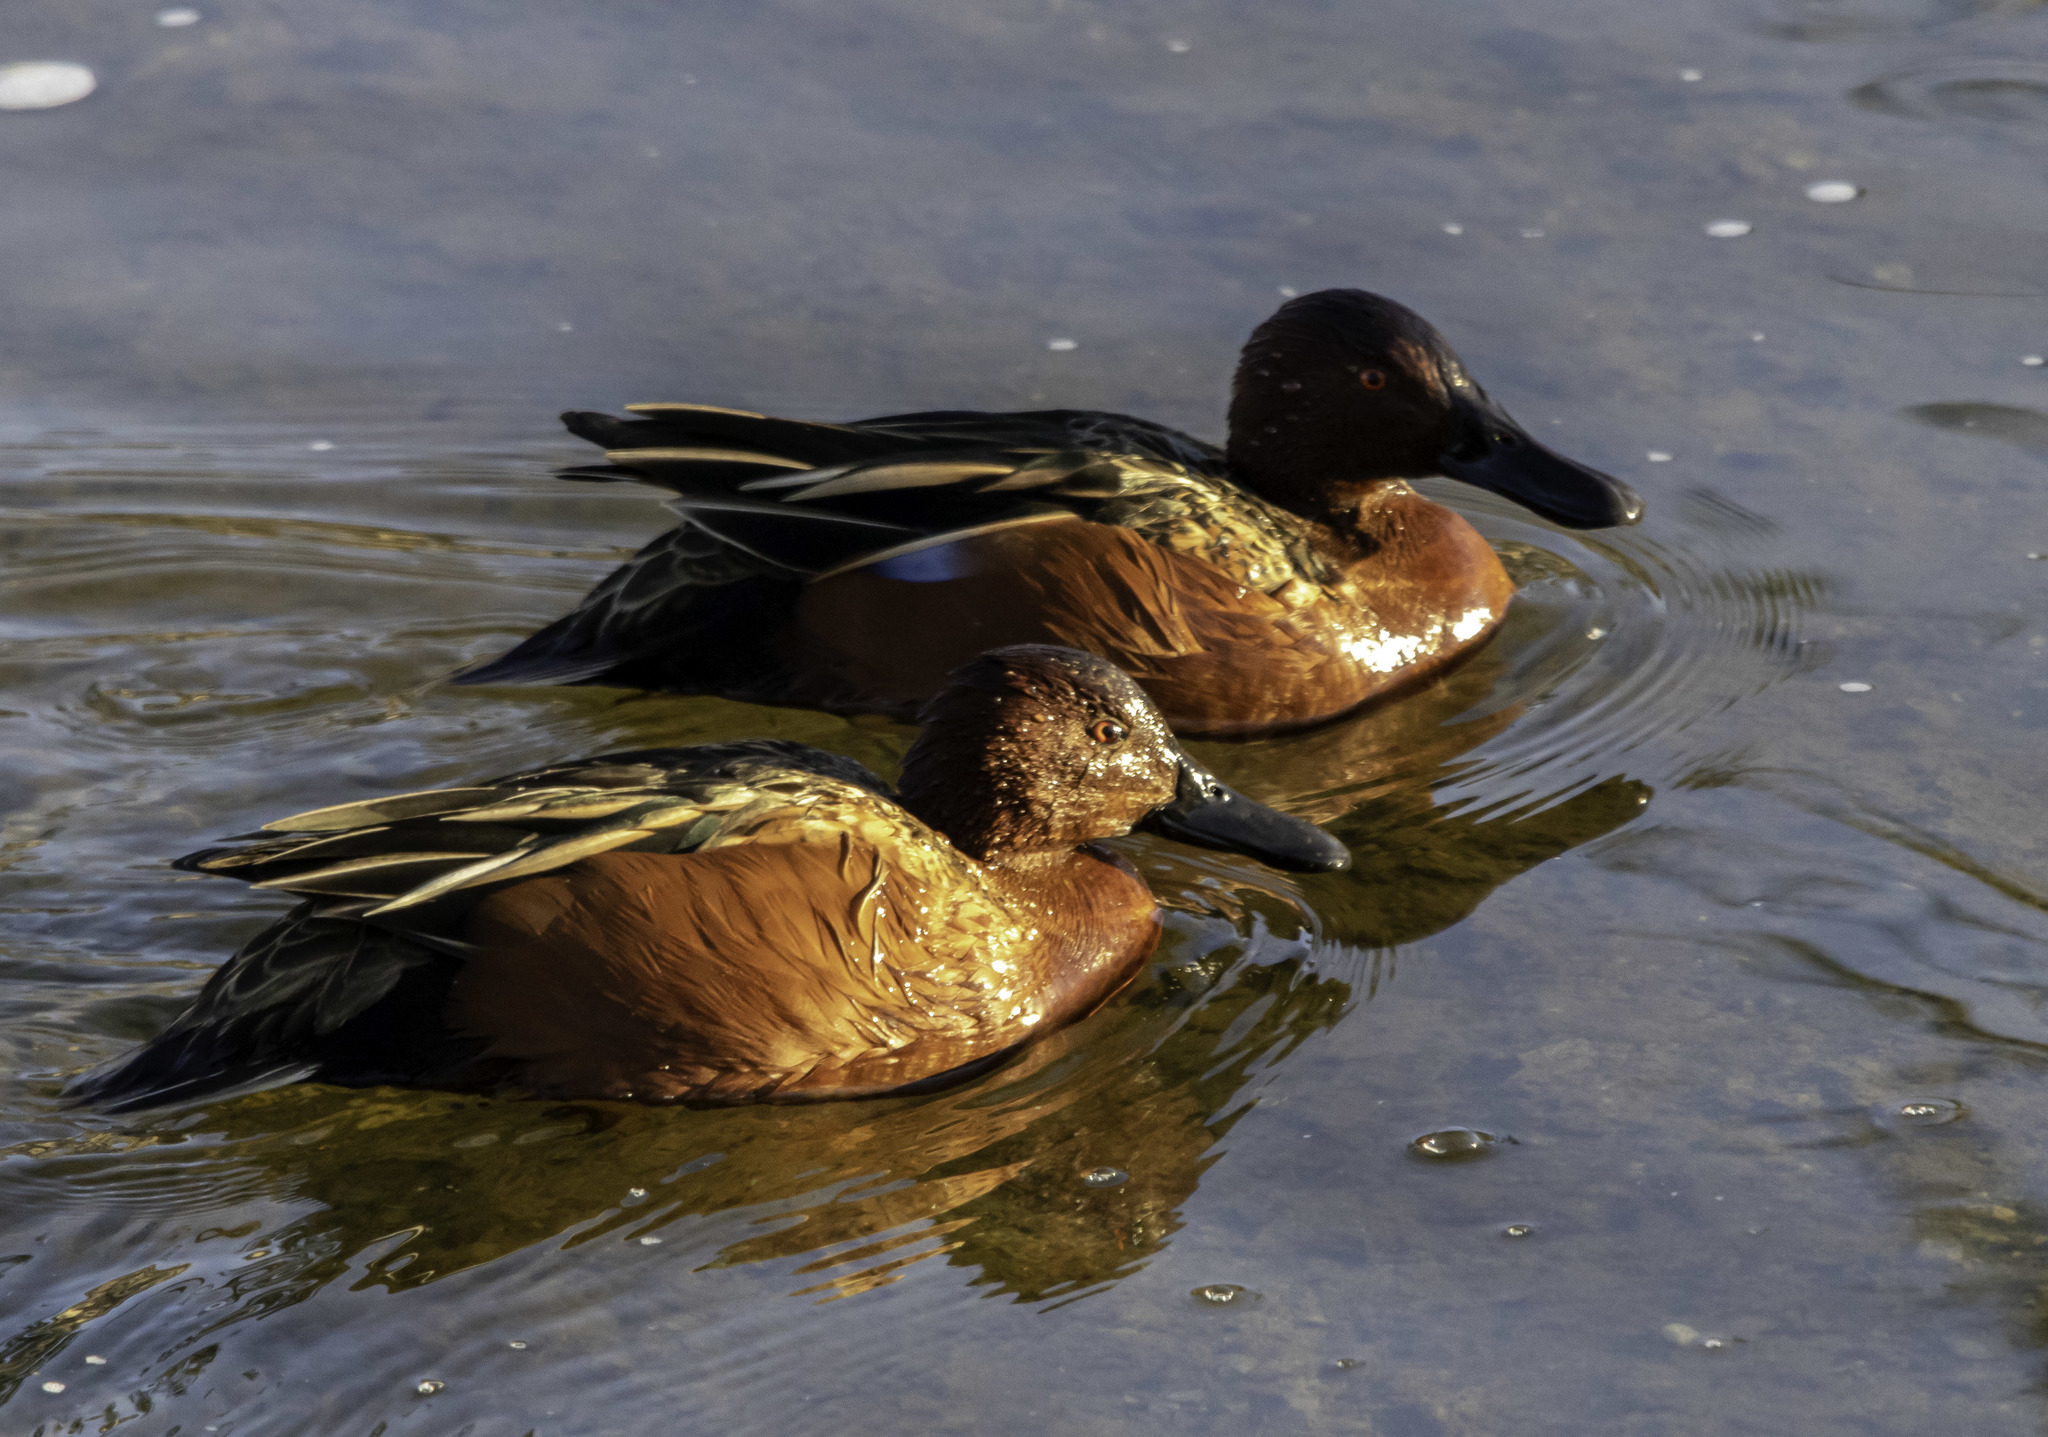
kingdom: Animalia
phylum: Chordata
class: Aves
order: Anseriformes
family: Anatidae
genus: Spatula
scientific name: Spatula cyanoptera
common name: Cinnamon teal
